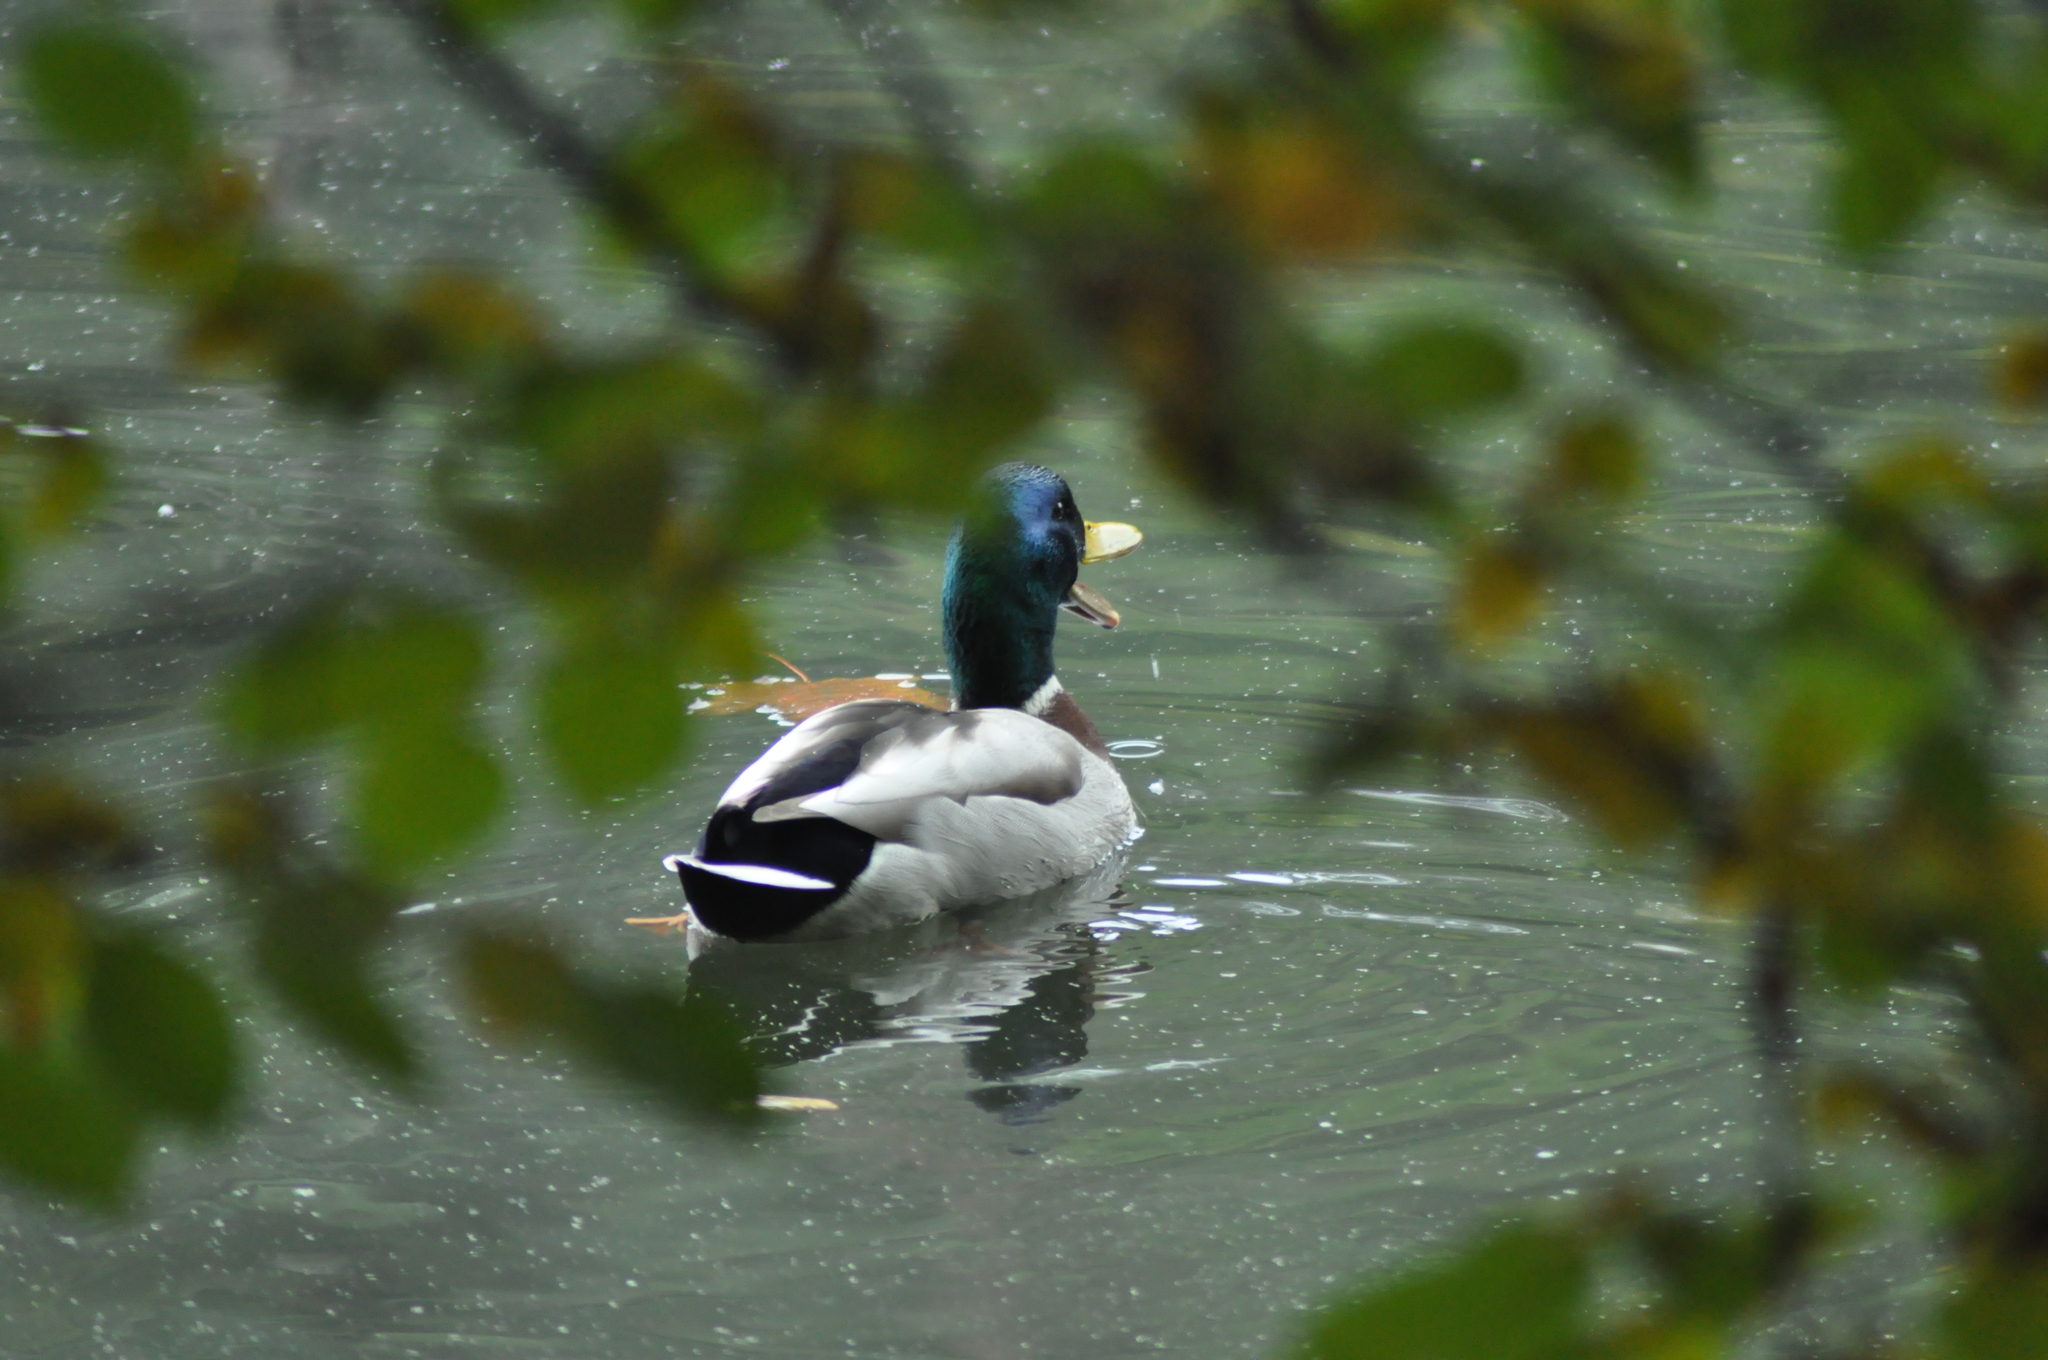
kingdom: Animalia
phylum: Chordata
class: Aves
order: Anseriformes
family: Anatidae
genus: Anas
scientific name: Anas platyrhynchos
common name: Mallard
